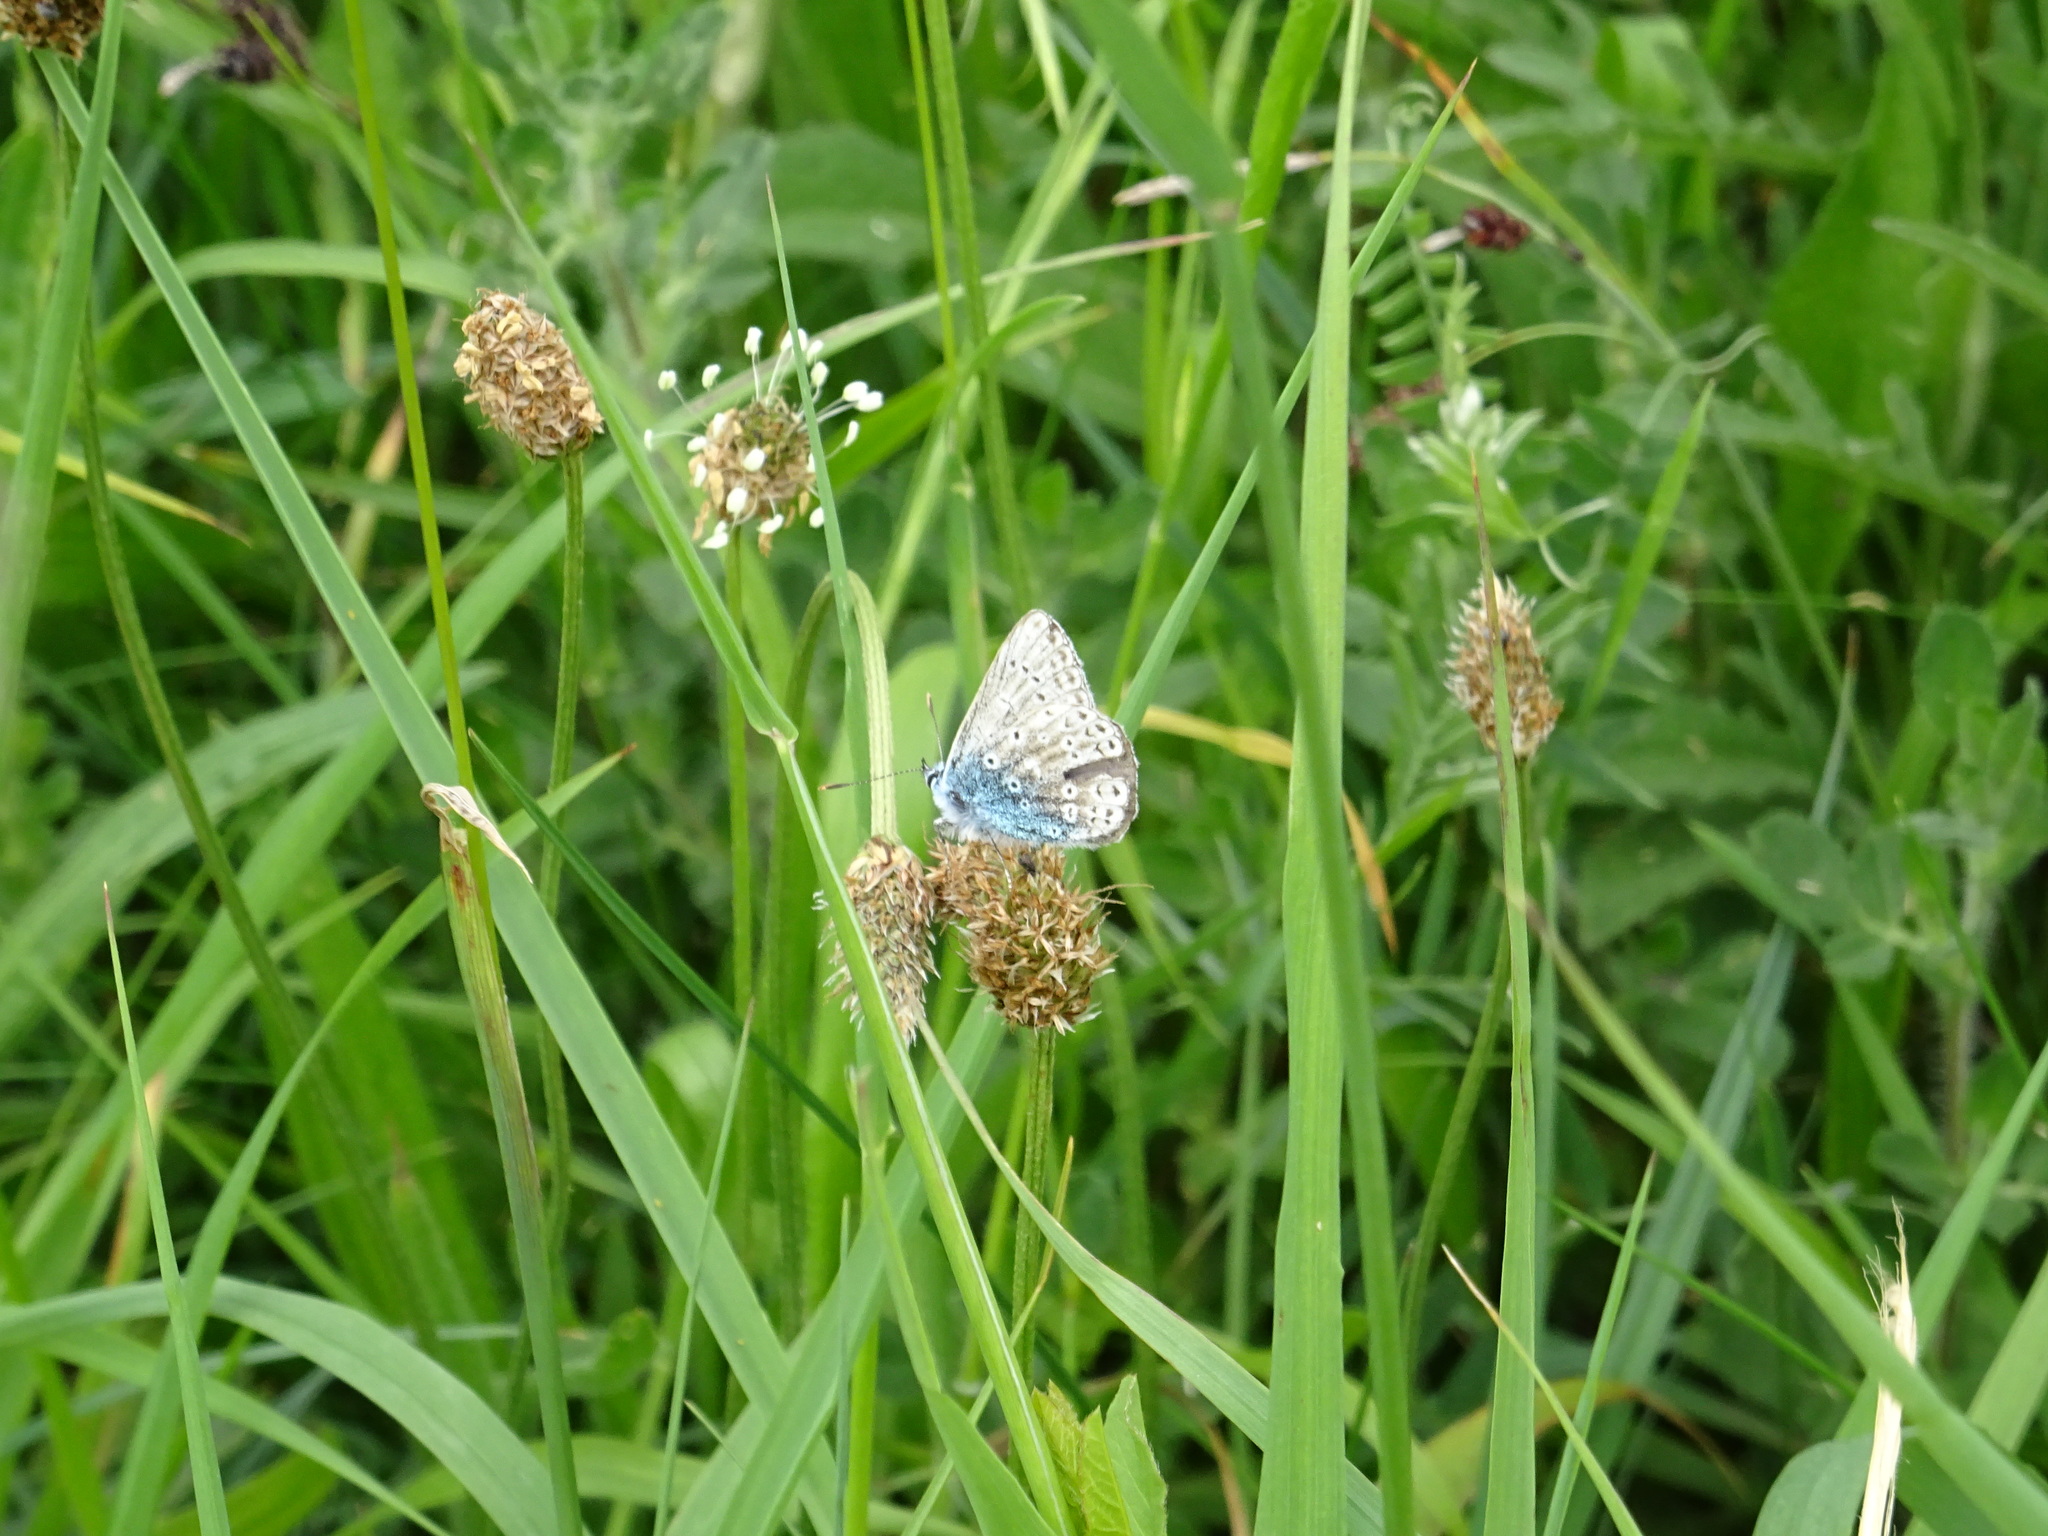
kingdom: Animalia
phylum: Arthropoda
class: Insecta
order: Lepidoptera
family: Lycaenidae
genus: Polyommatus
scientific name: Polyommatus icarus
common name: Common blue
